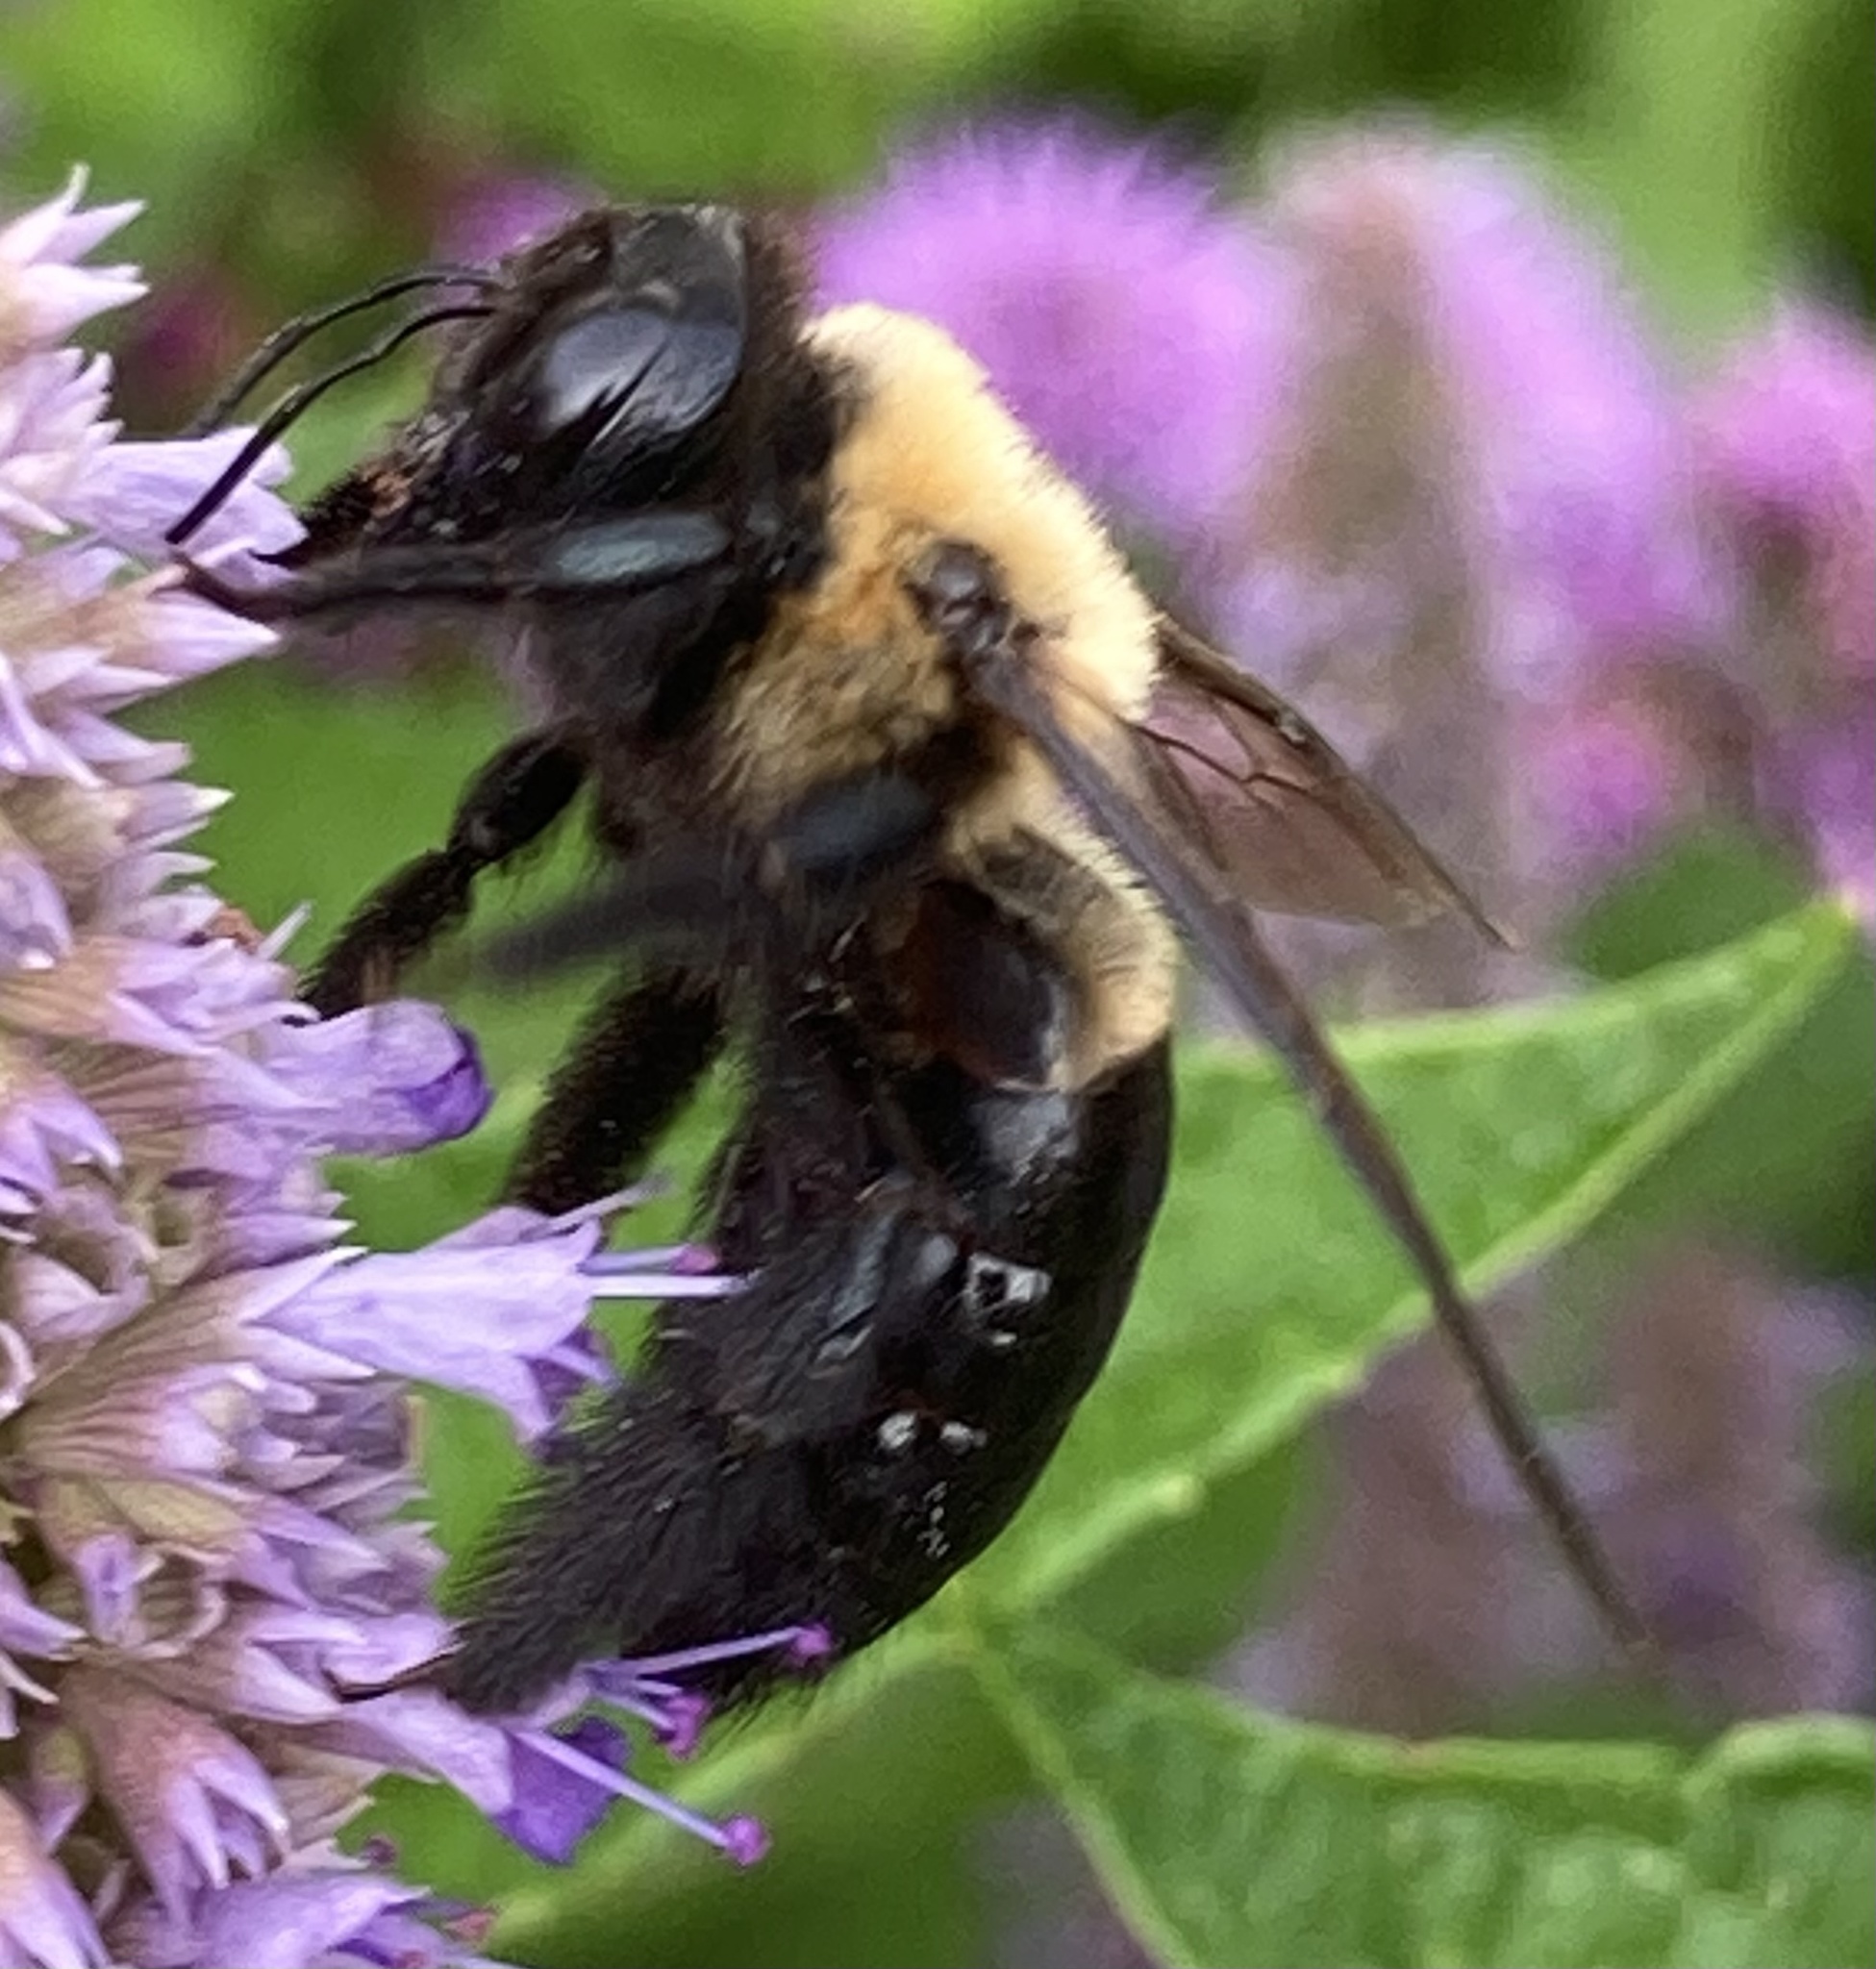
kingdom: Animalia
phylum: Arthropoda
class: Insecta
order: Hymenoptera
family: Apidae
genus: Xylocopa
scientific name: Xylocopa virginica
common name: Carpenter bee
